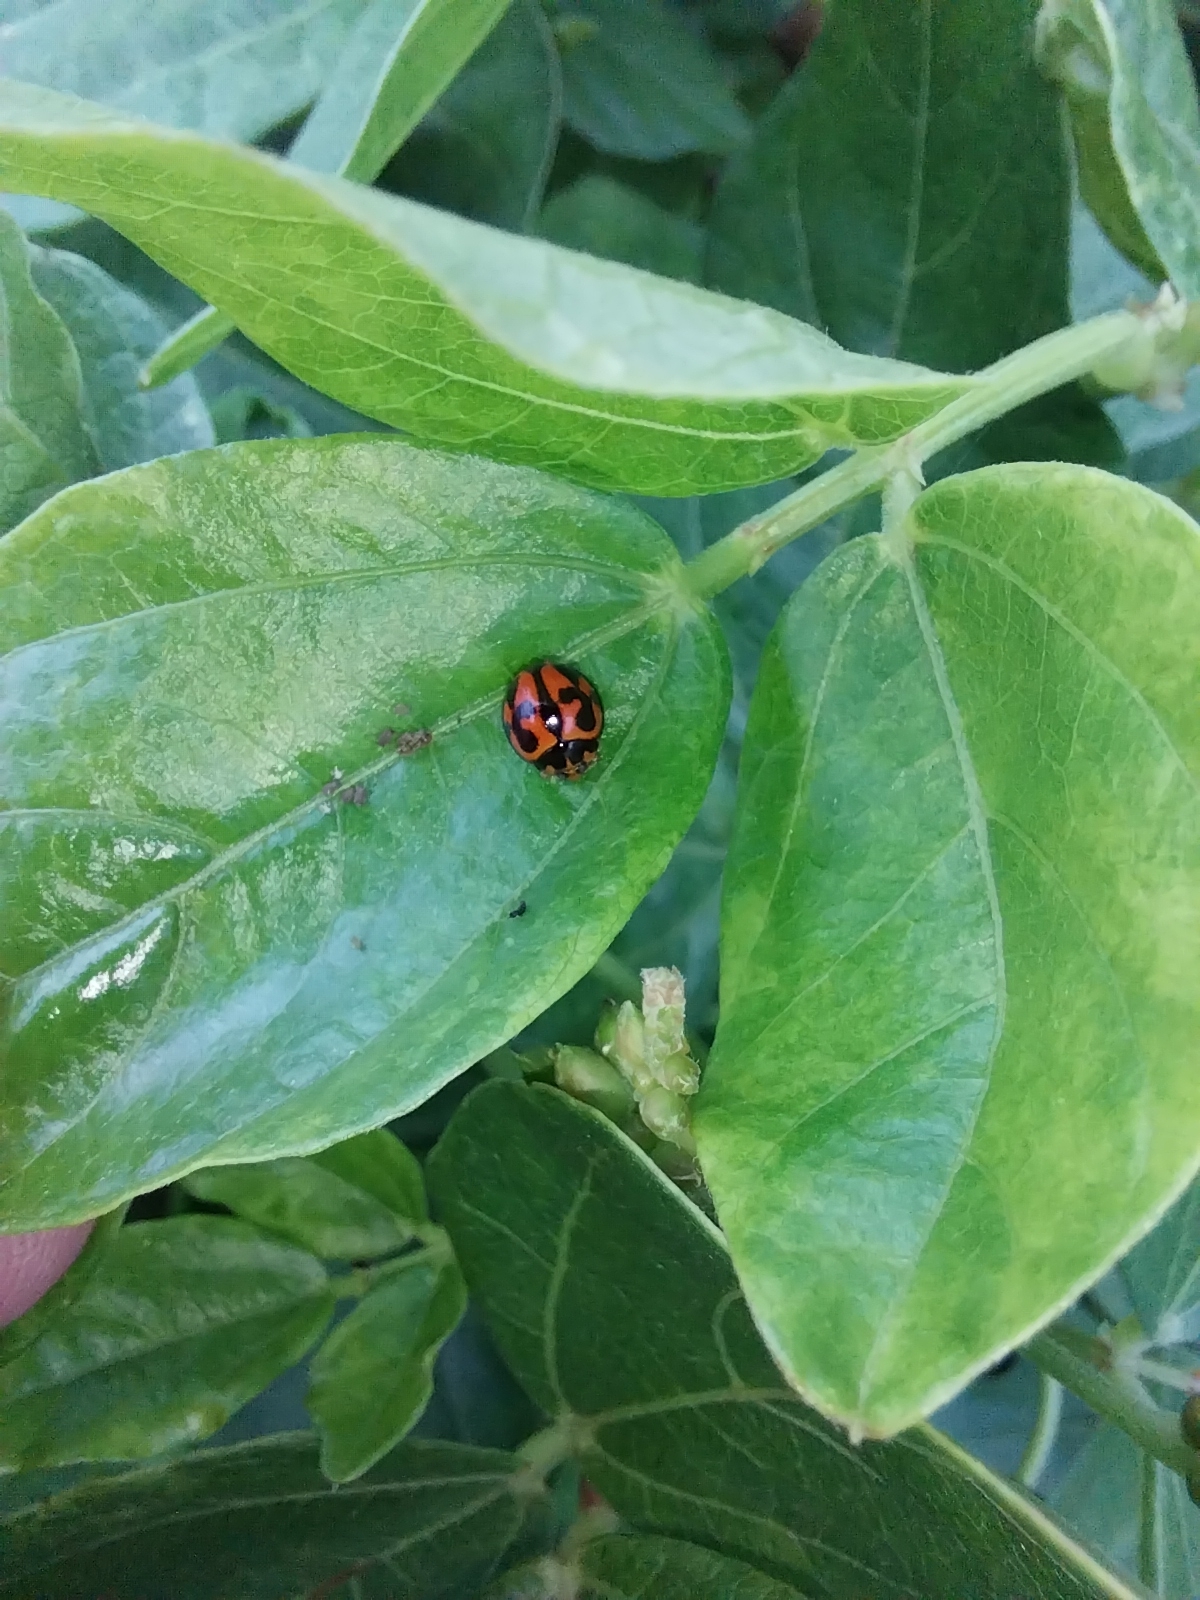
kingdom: Animalia
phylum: Arthropoda
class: Insecta
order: Coleoptera
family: Coccinellidae
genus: Coelophora
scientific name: Coelophora inaequalis
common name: Common australian lady beetle
